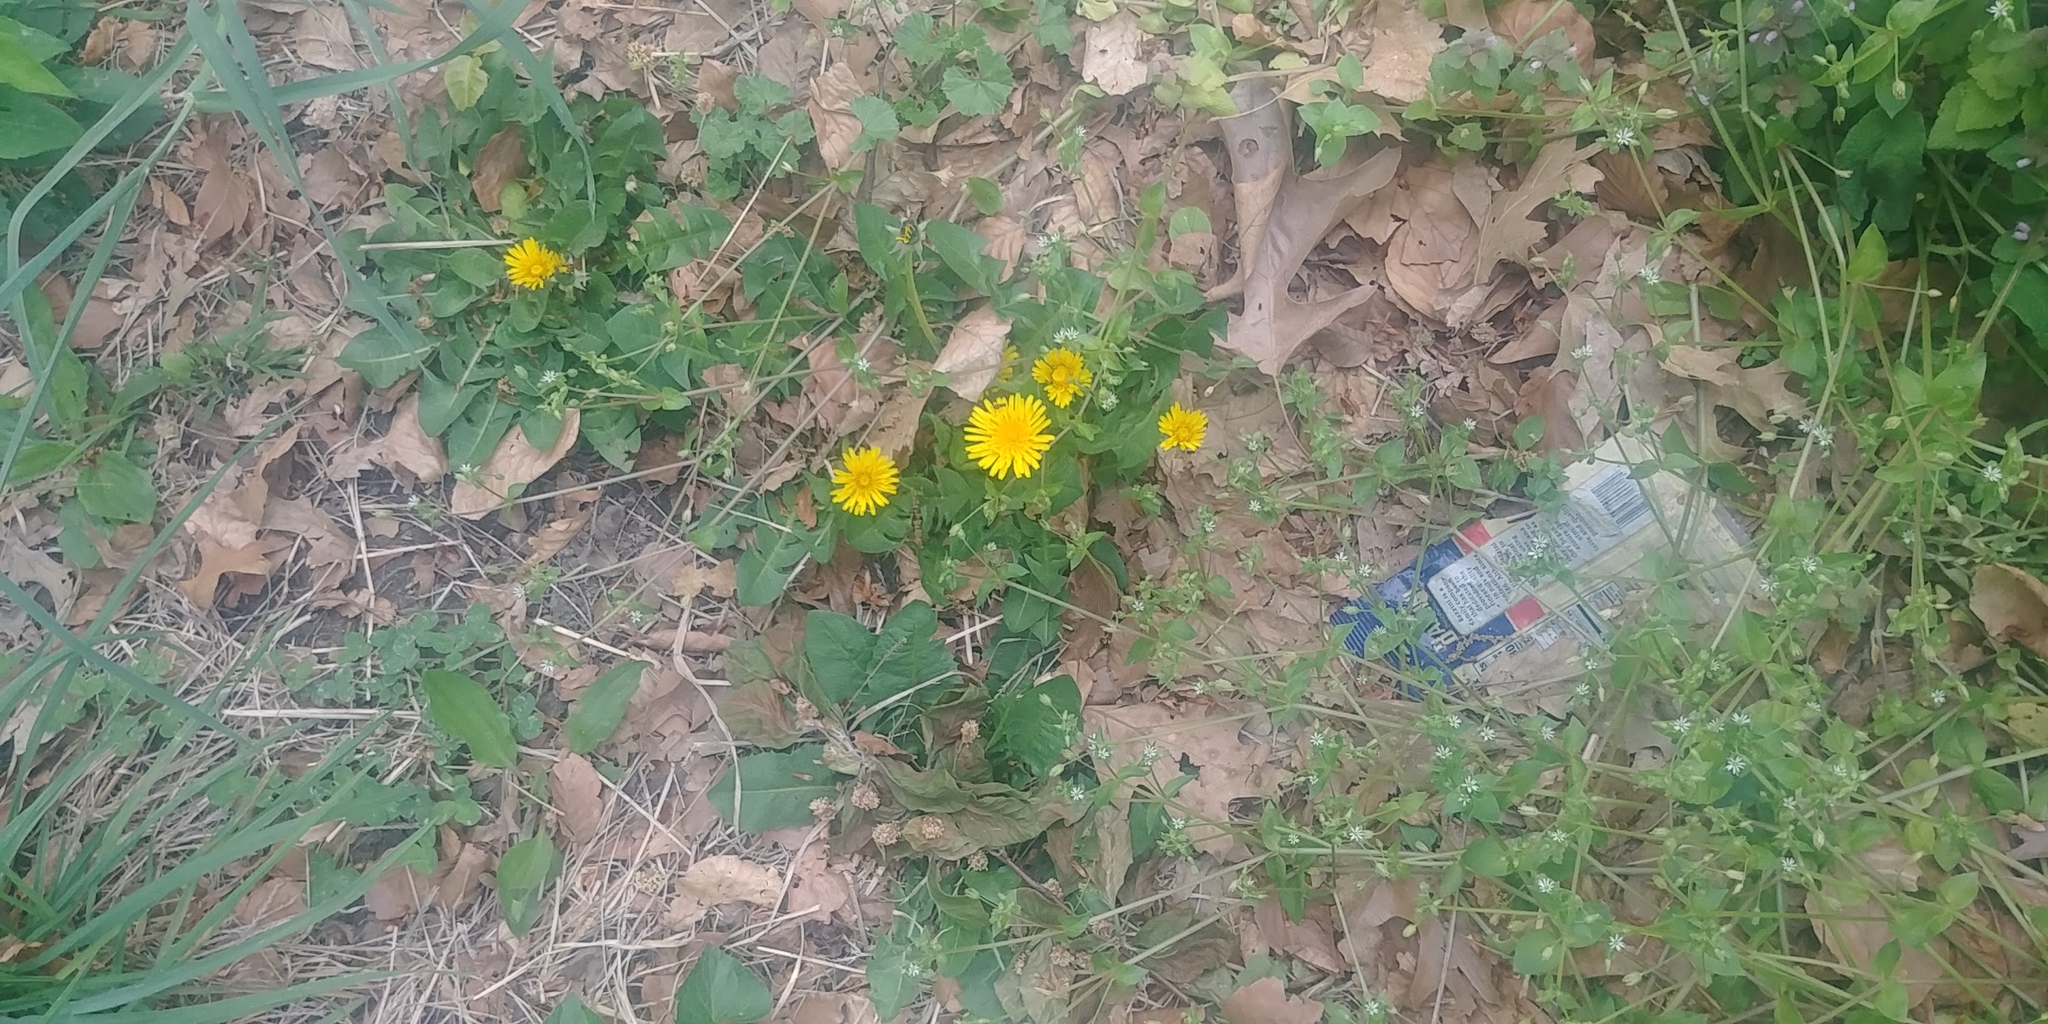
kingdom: Plantae
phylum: Tracheophyta
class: Magnoliopsida
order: Asterales
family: Asteraceae
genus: Taraxacum
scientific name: Taraxacum officinale
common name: Common dandelion
